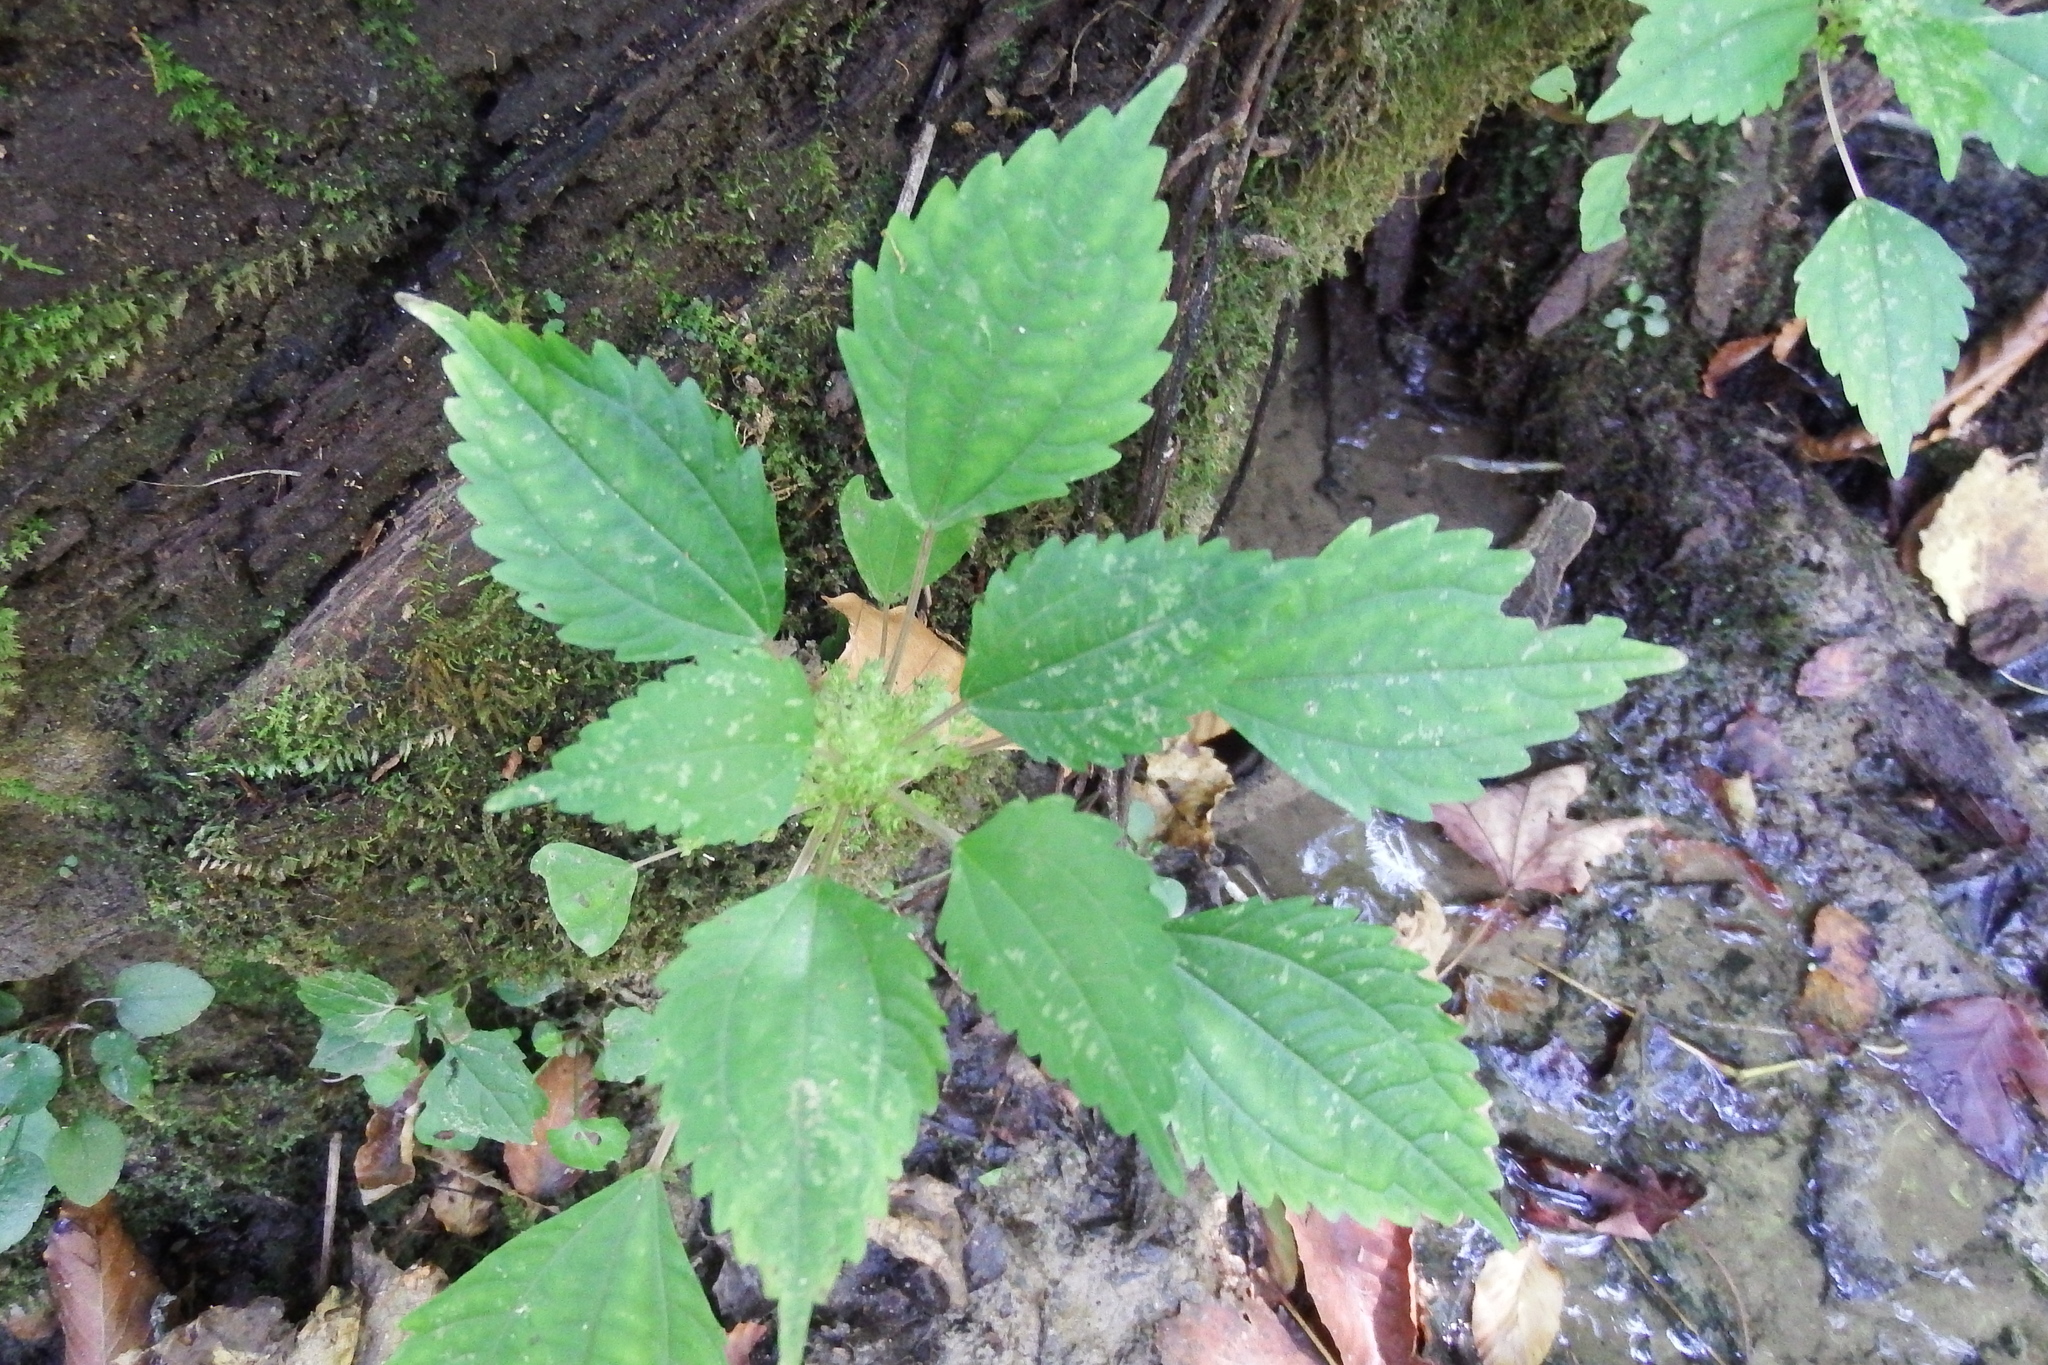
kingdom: Plantae
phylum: Tracheophyta
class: Magnoliopsida
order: Rosales
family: Urticaceae
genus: Pilea
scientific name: Pilea pumila
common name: Clearweed
